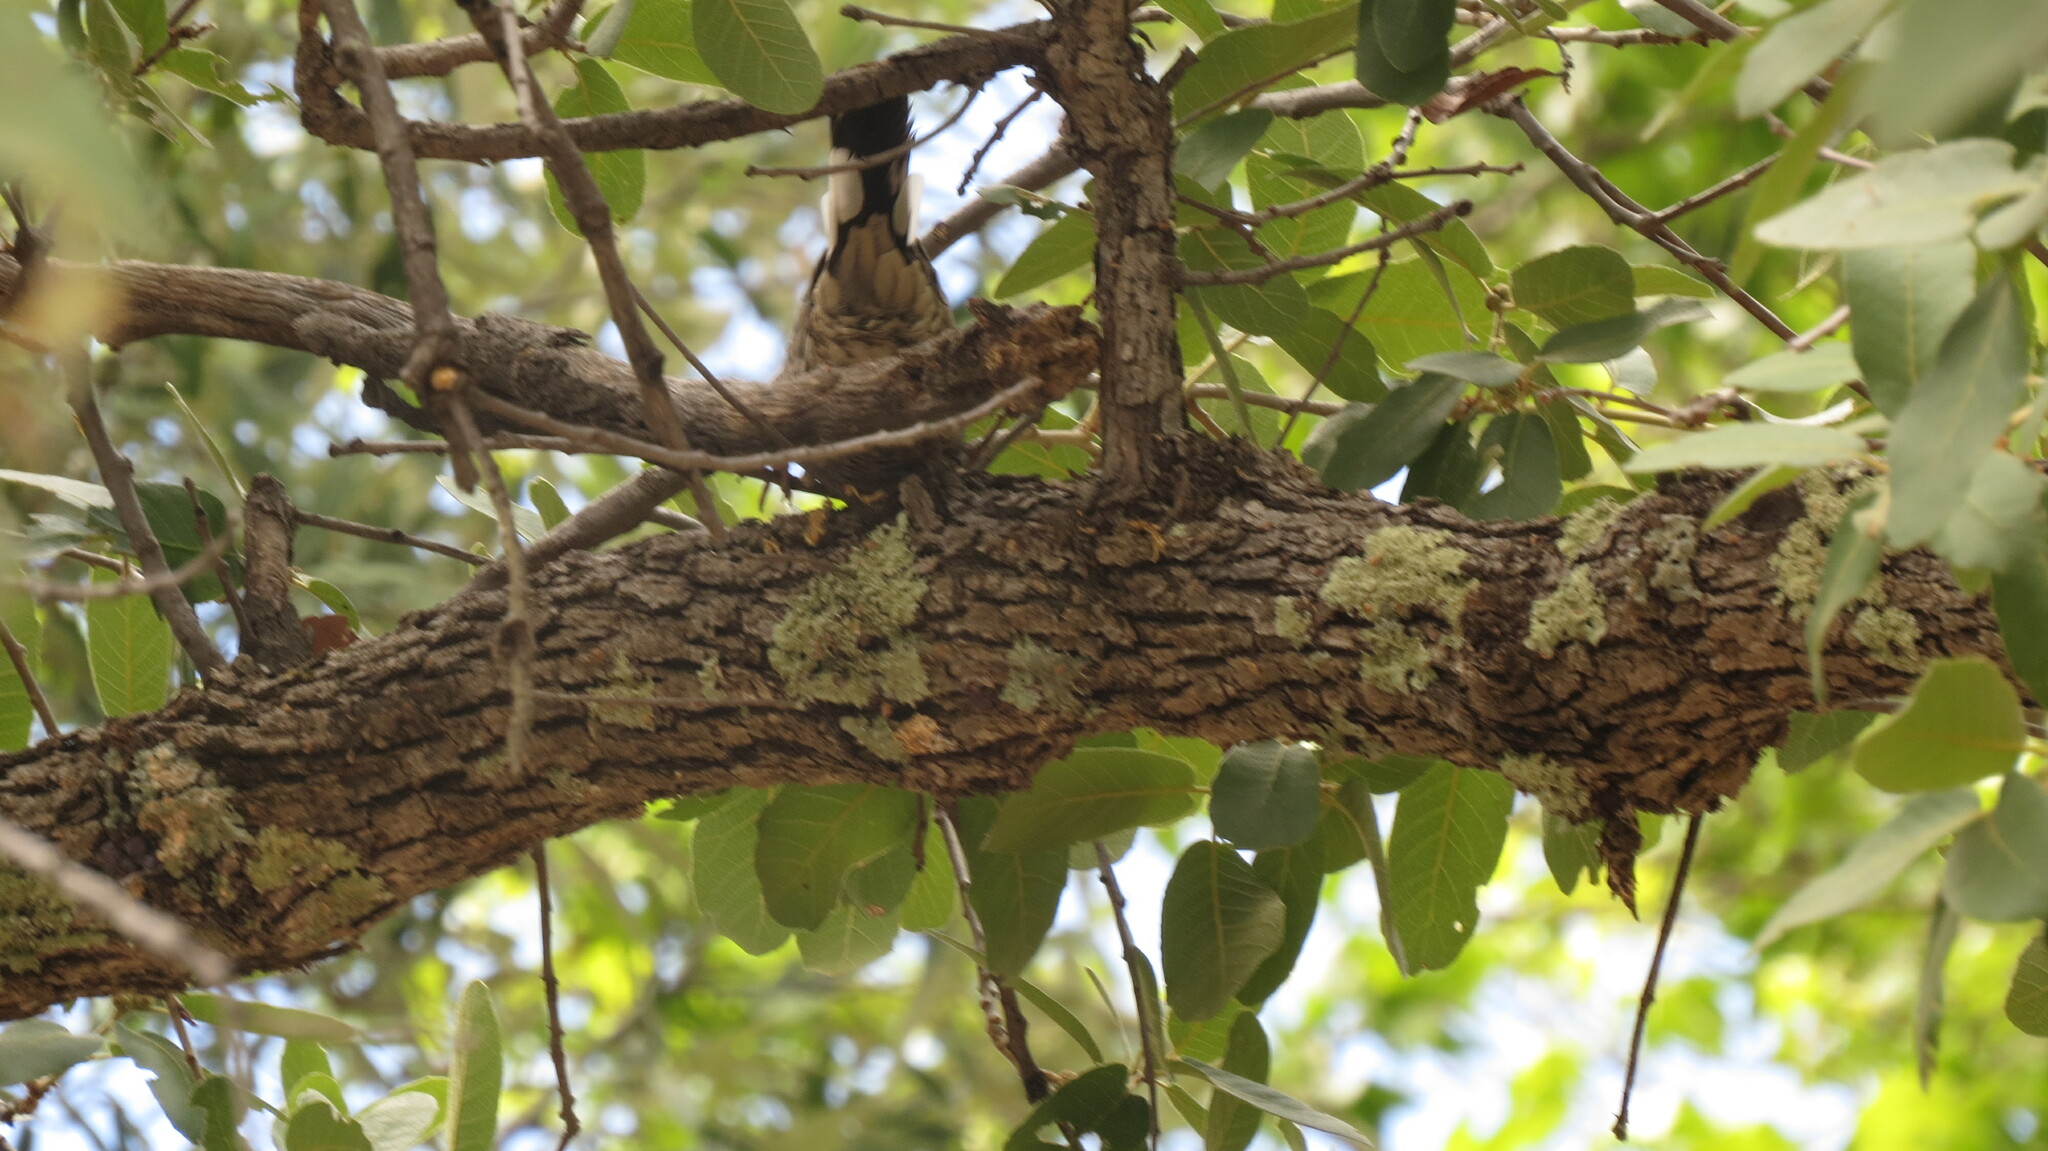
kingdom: Animalia
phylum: Chordata
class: Aves
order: Columbiformes
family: Columbidae
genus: Columbina
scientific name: Columbina inca
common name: Inca dove
